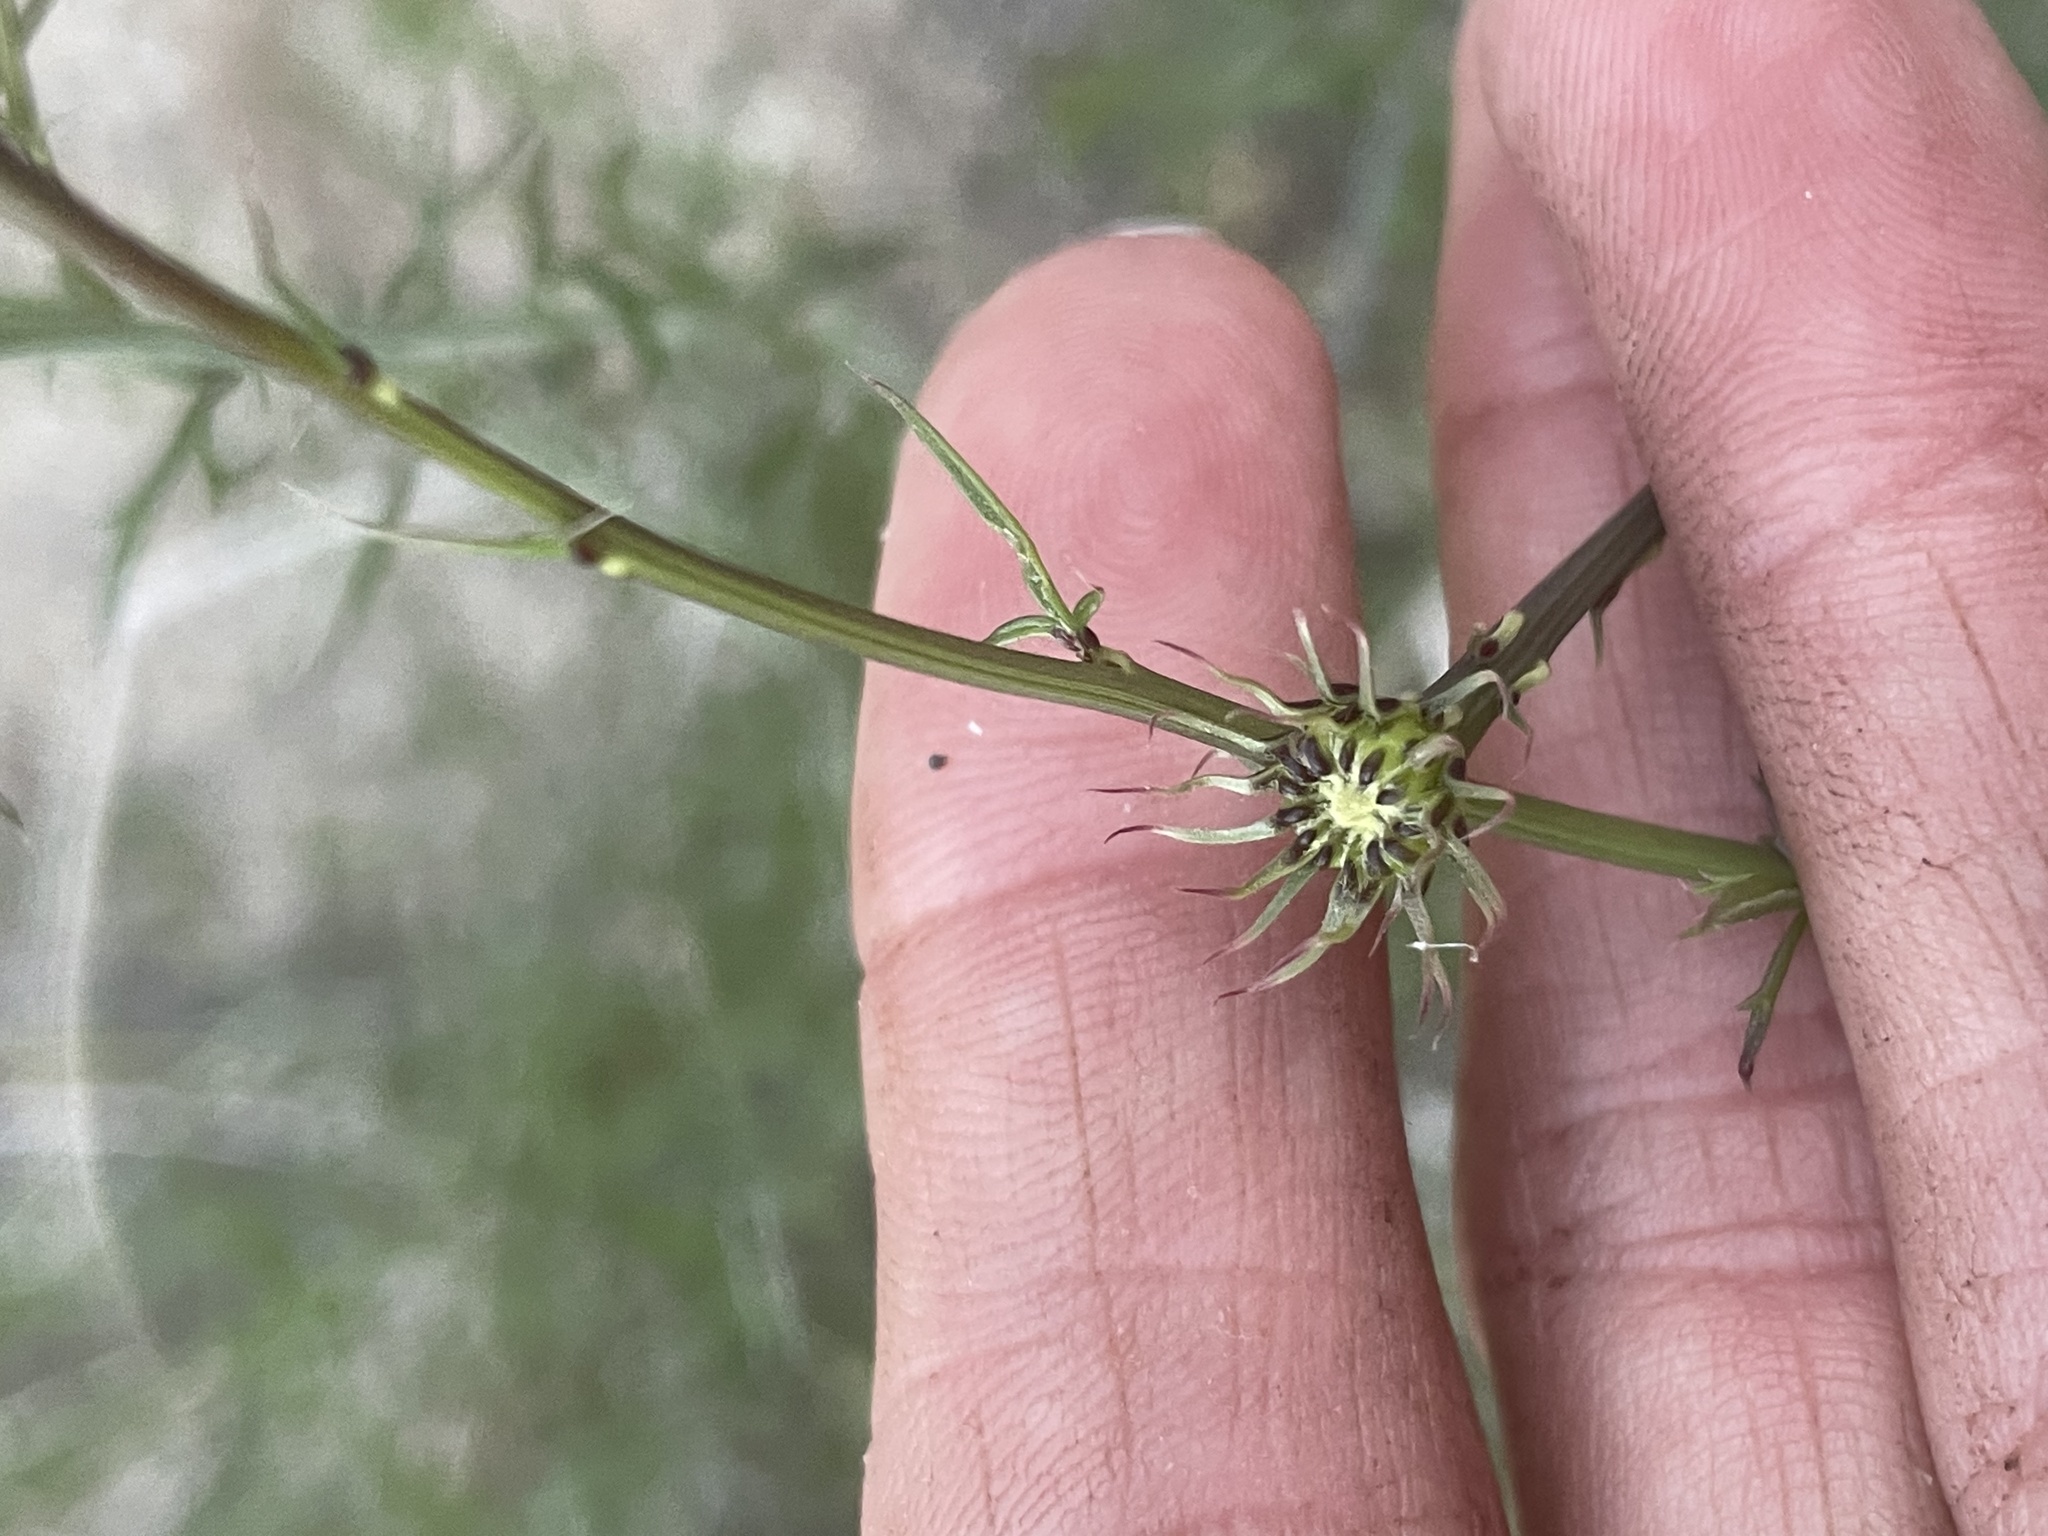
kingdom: Plantae
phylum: Tracheophyta
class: Magnoliopsida
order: Asterales
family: Asteraceae
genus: Adenophyllum
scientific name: Adenophyllum porophylloides
